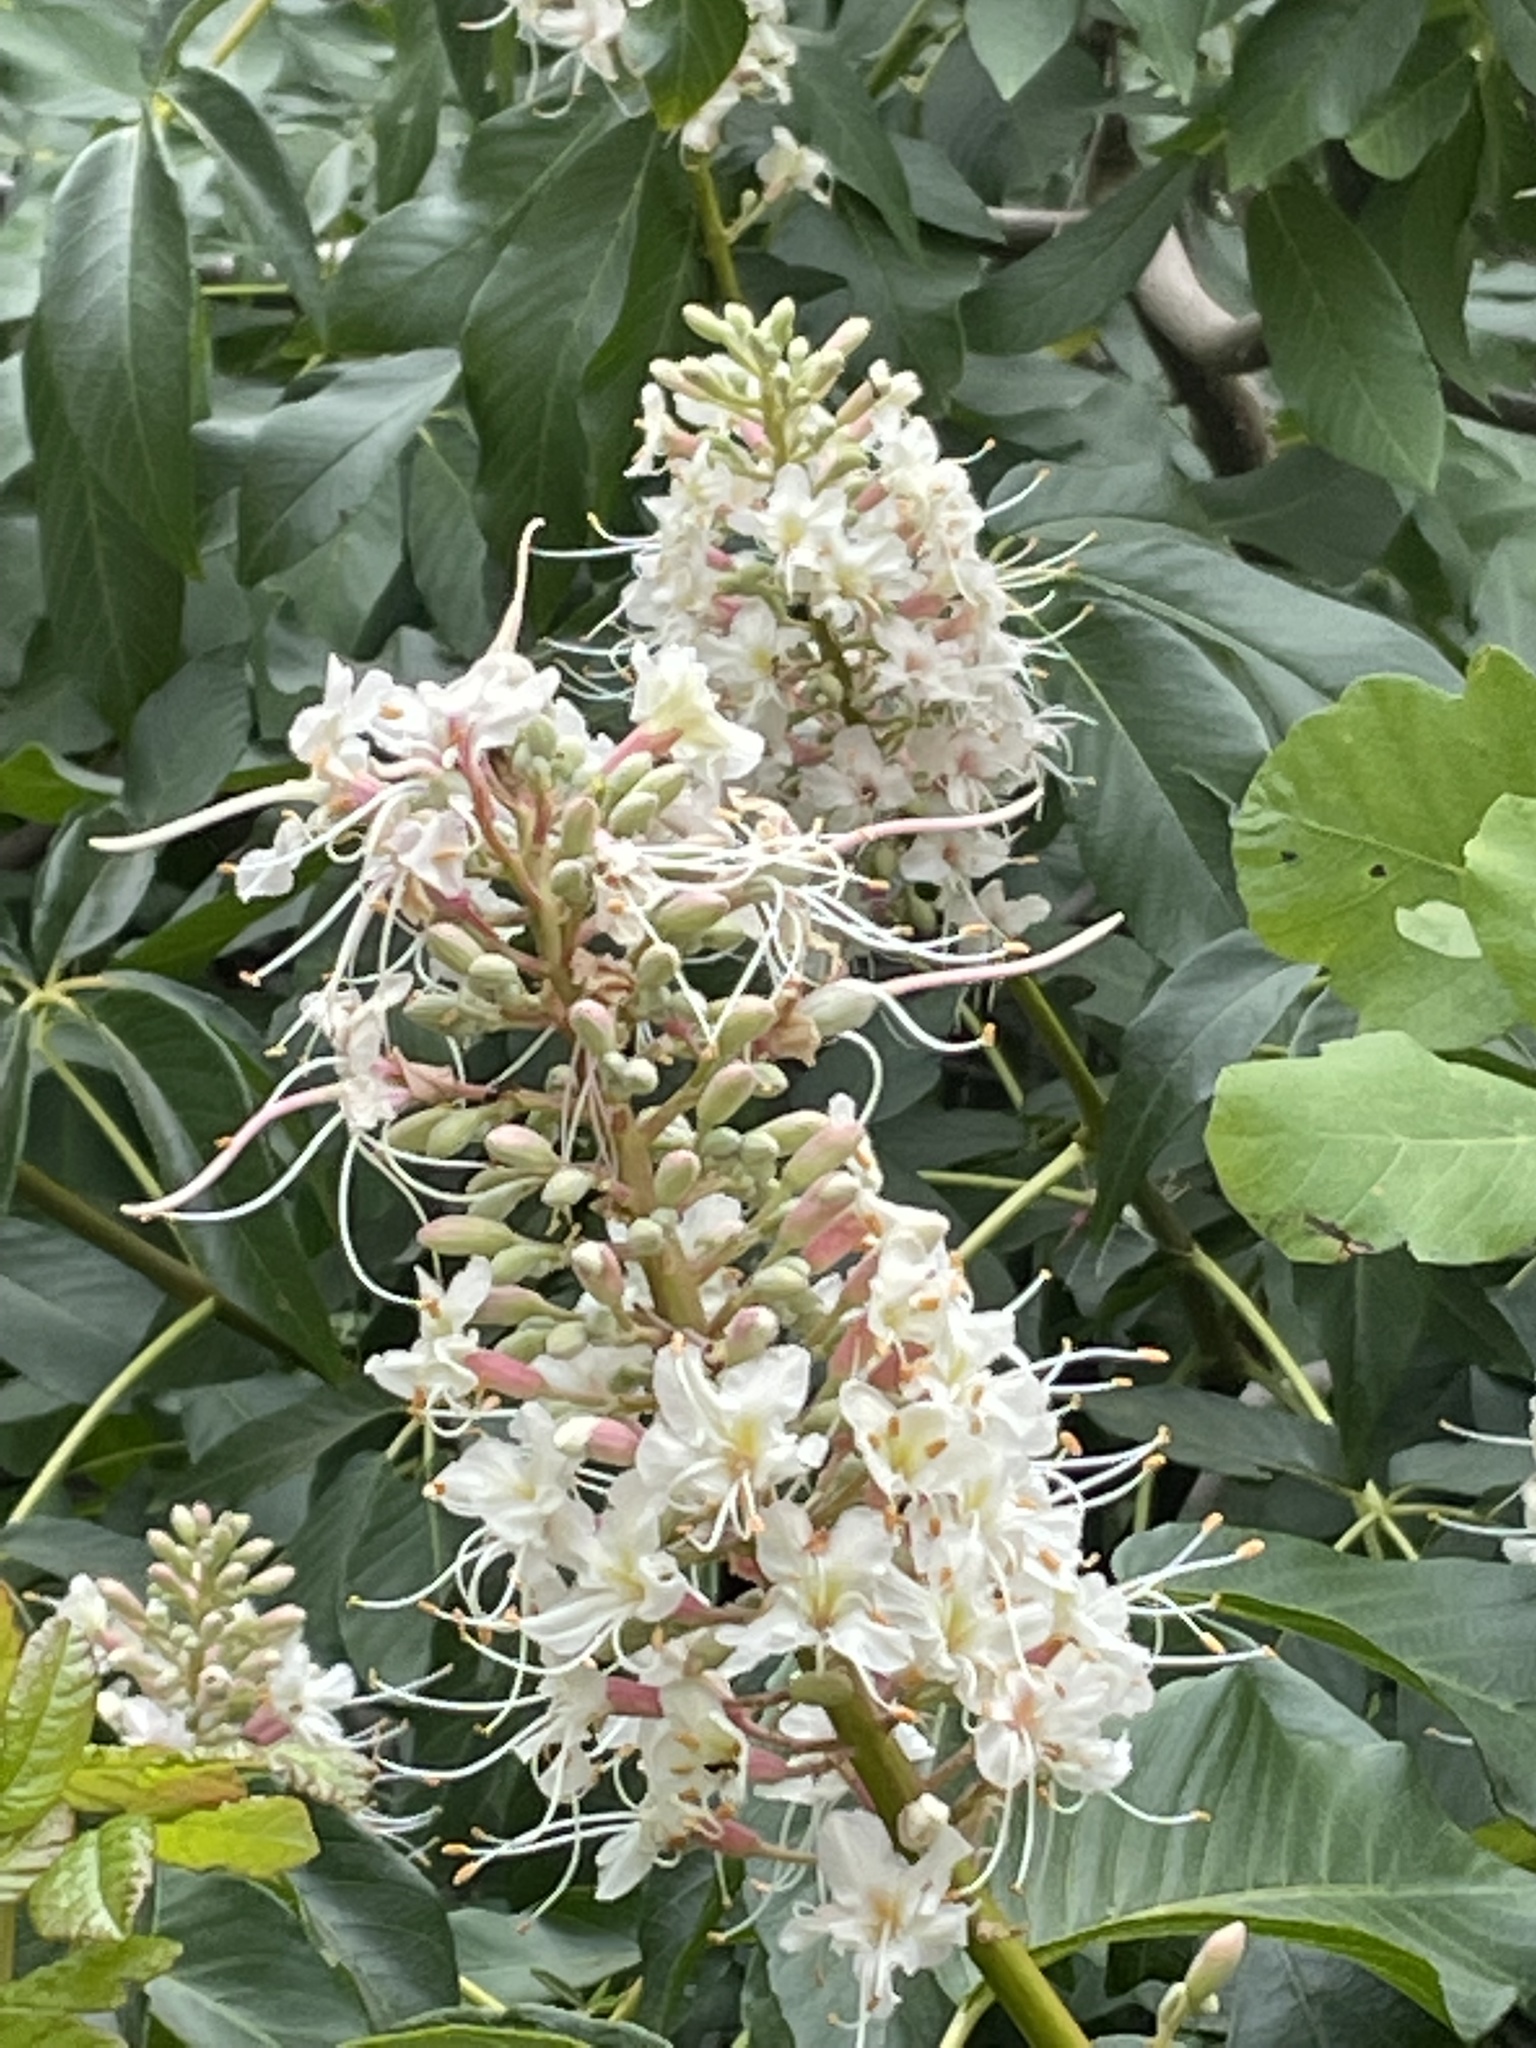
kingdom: Plantae
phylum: Tracheophyta
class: Magnoliopsida
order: Sapindales
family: Sapindaceae
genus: Aesculus
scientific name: Aesculus californica
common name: California buckeye
